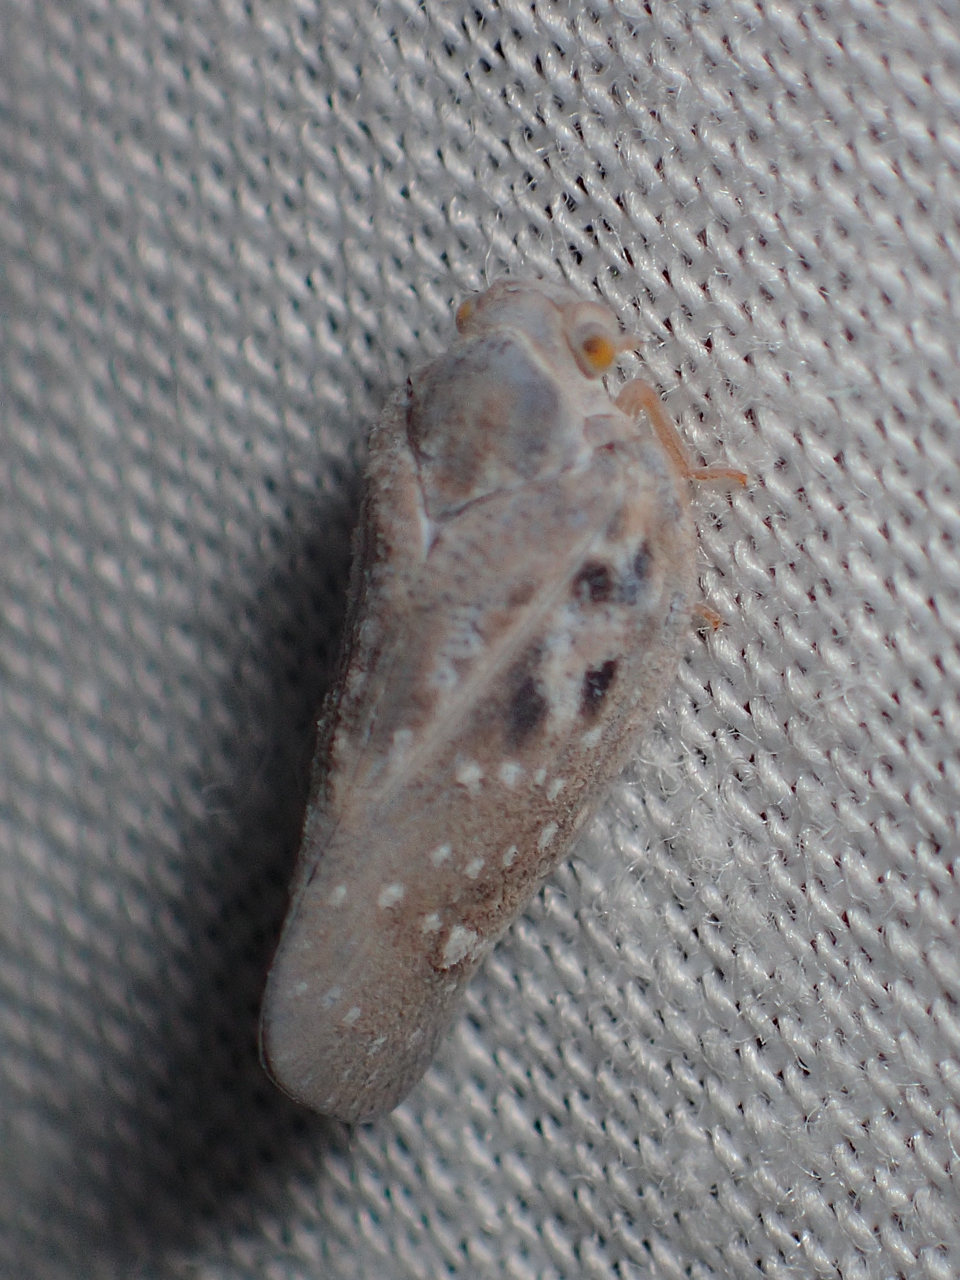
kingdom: Animalia
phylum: Arthropoda
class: Insecta
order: Hemiptera
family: Flatidae
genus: Metcalfa
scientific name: Metcalfa pruinosa
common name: Citrus flatid planthopper
